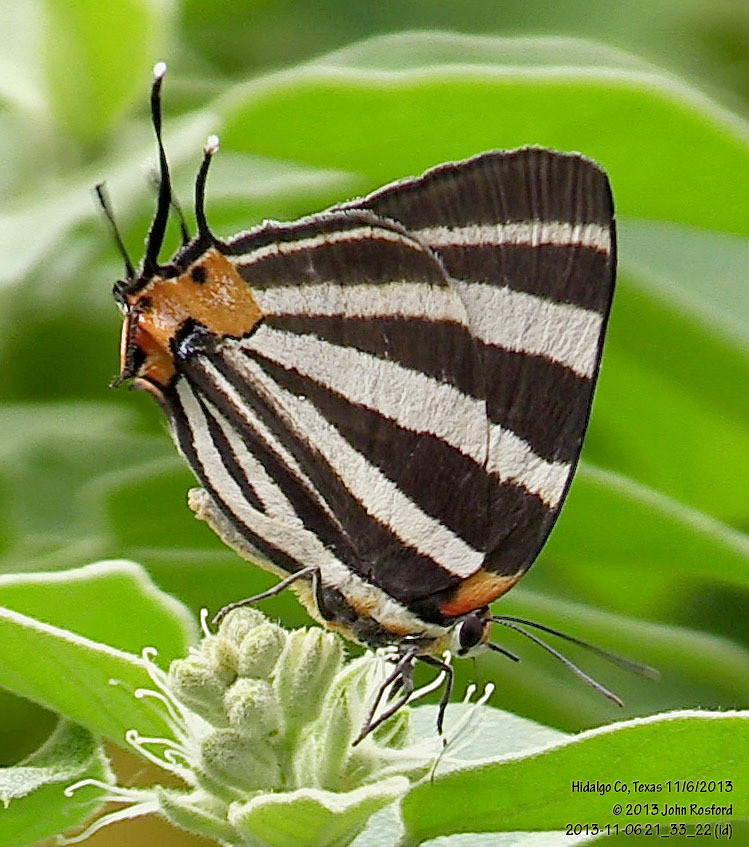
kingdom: Animalia
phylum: Arthropoda
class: Insecta
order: Lepidoptera
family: Lycaenidae
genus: Thecla
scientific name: Thecla bathildis
